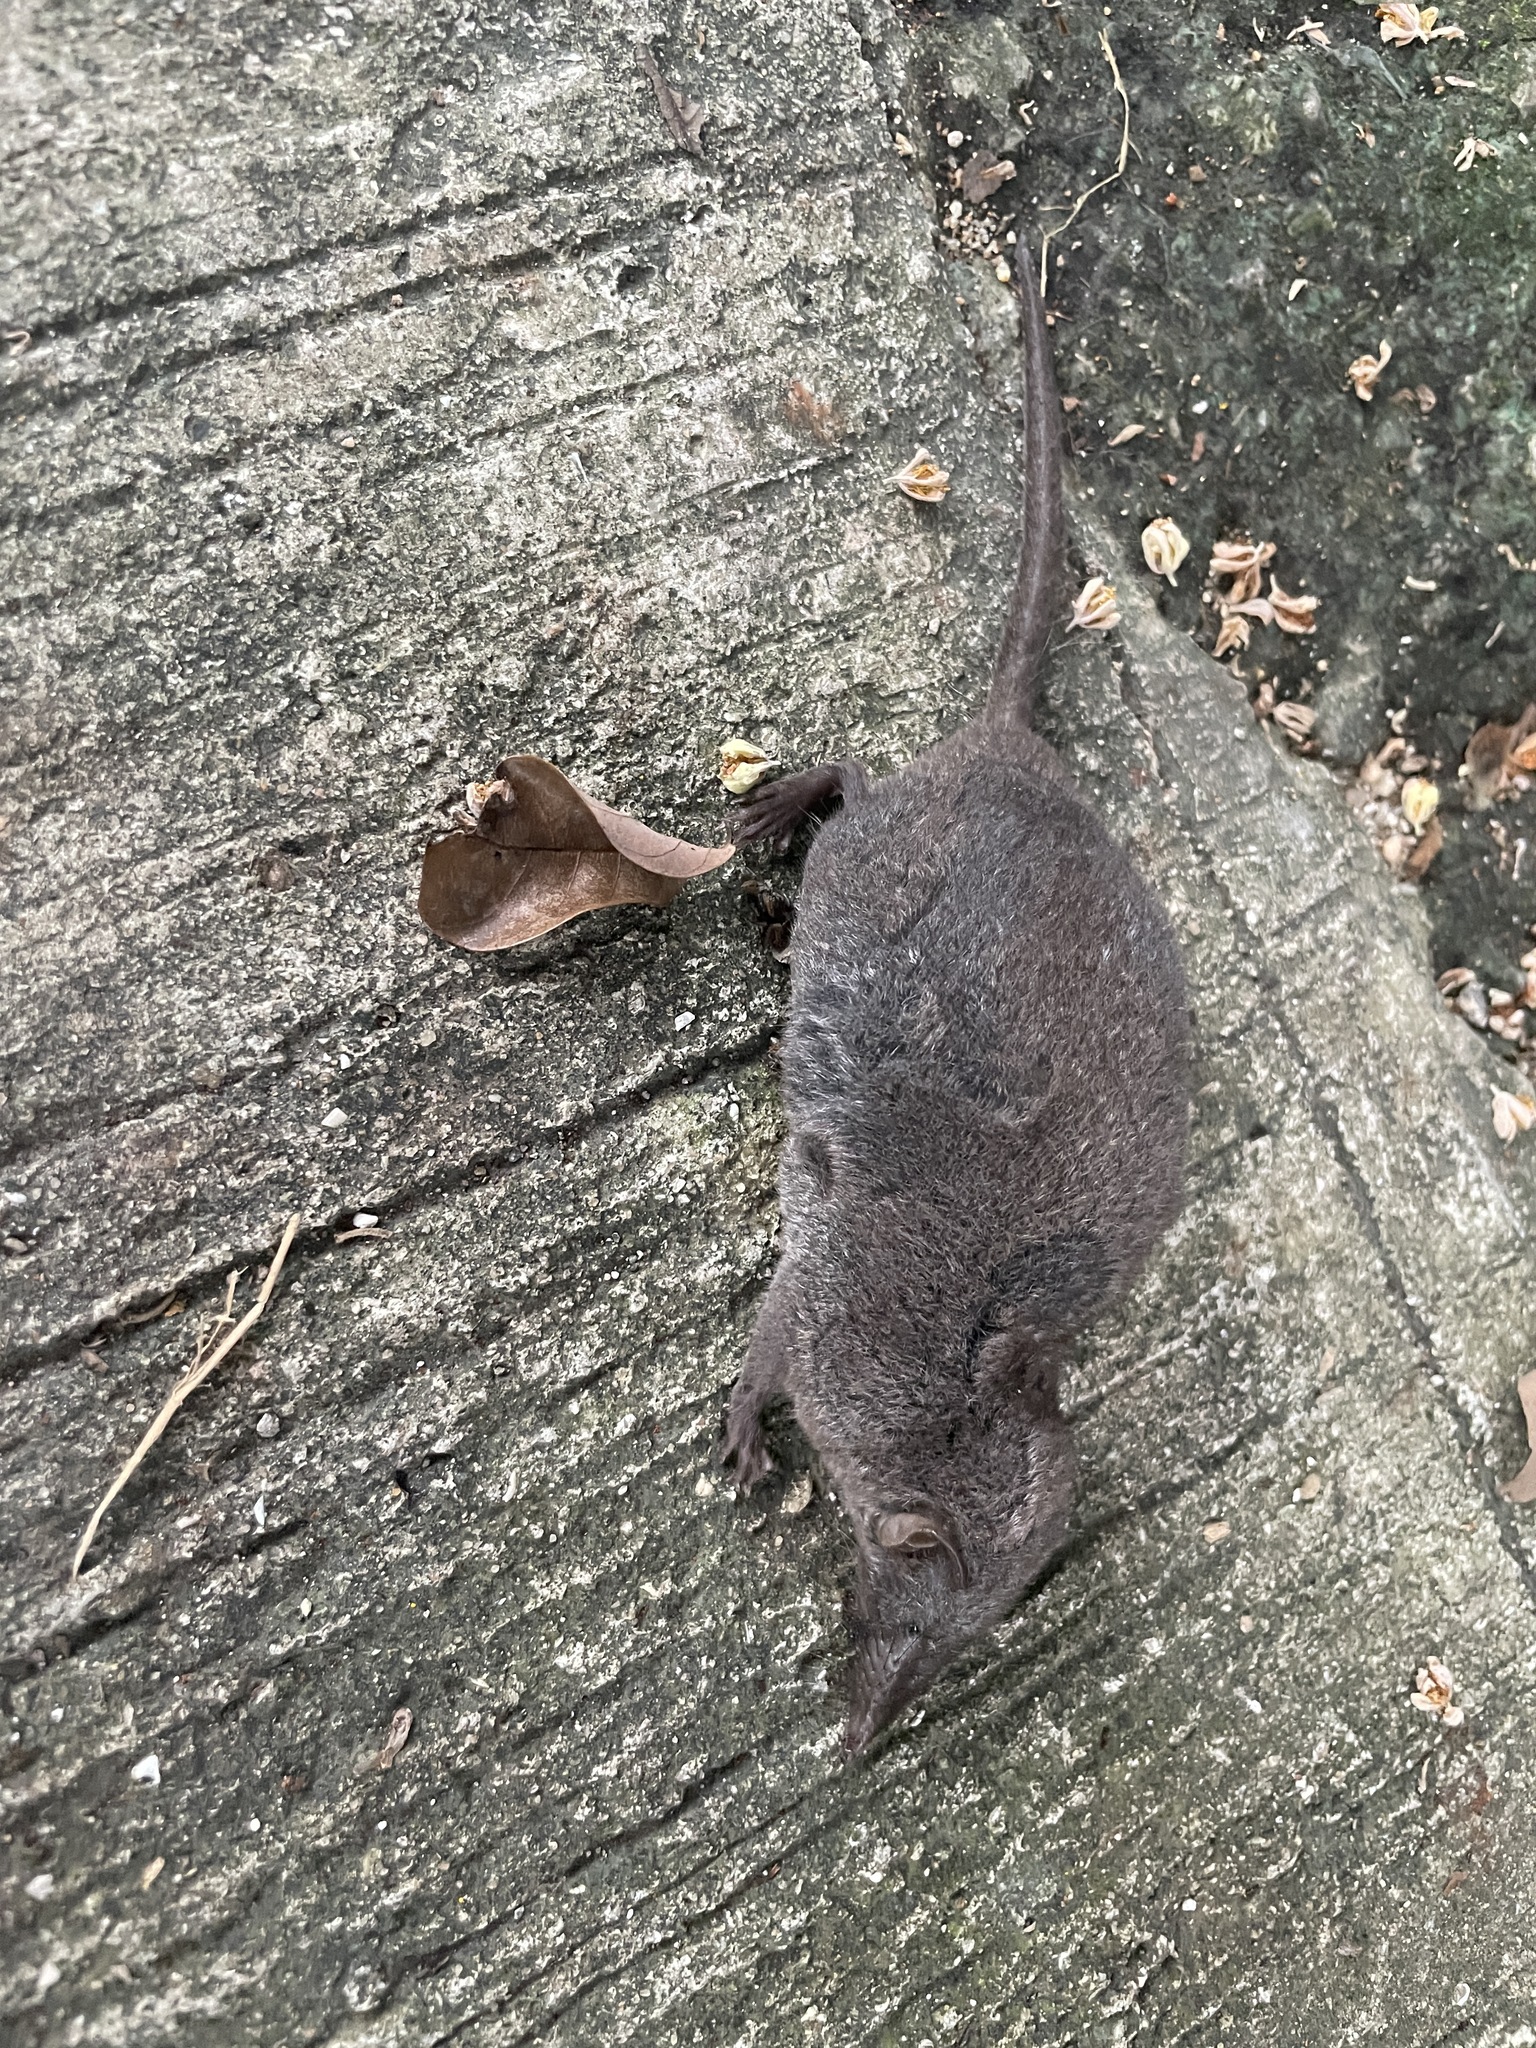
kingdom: Animalia
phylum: Chordata
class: Mammalia
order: Soricomorpha
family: Soricidae
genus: Crocidura
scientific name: Crocidura tanakae
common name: Taiwanese gray shrew
